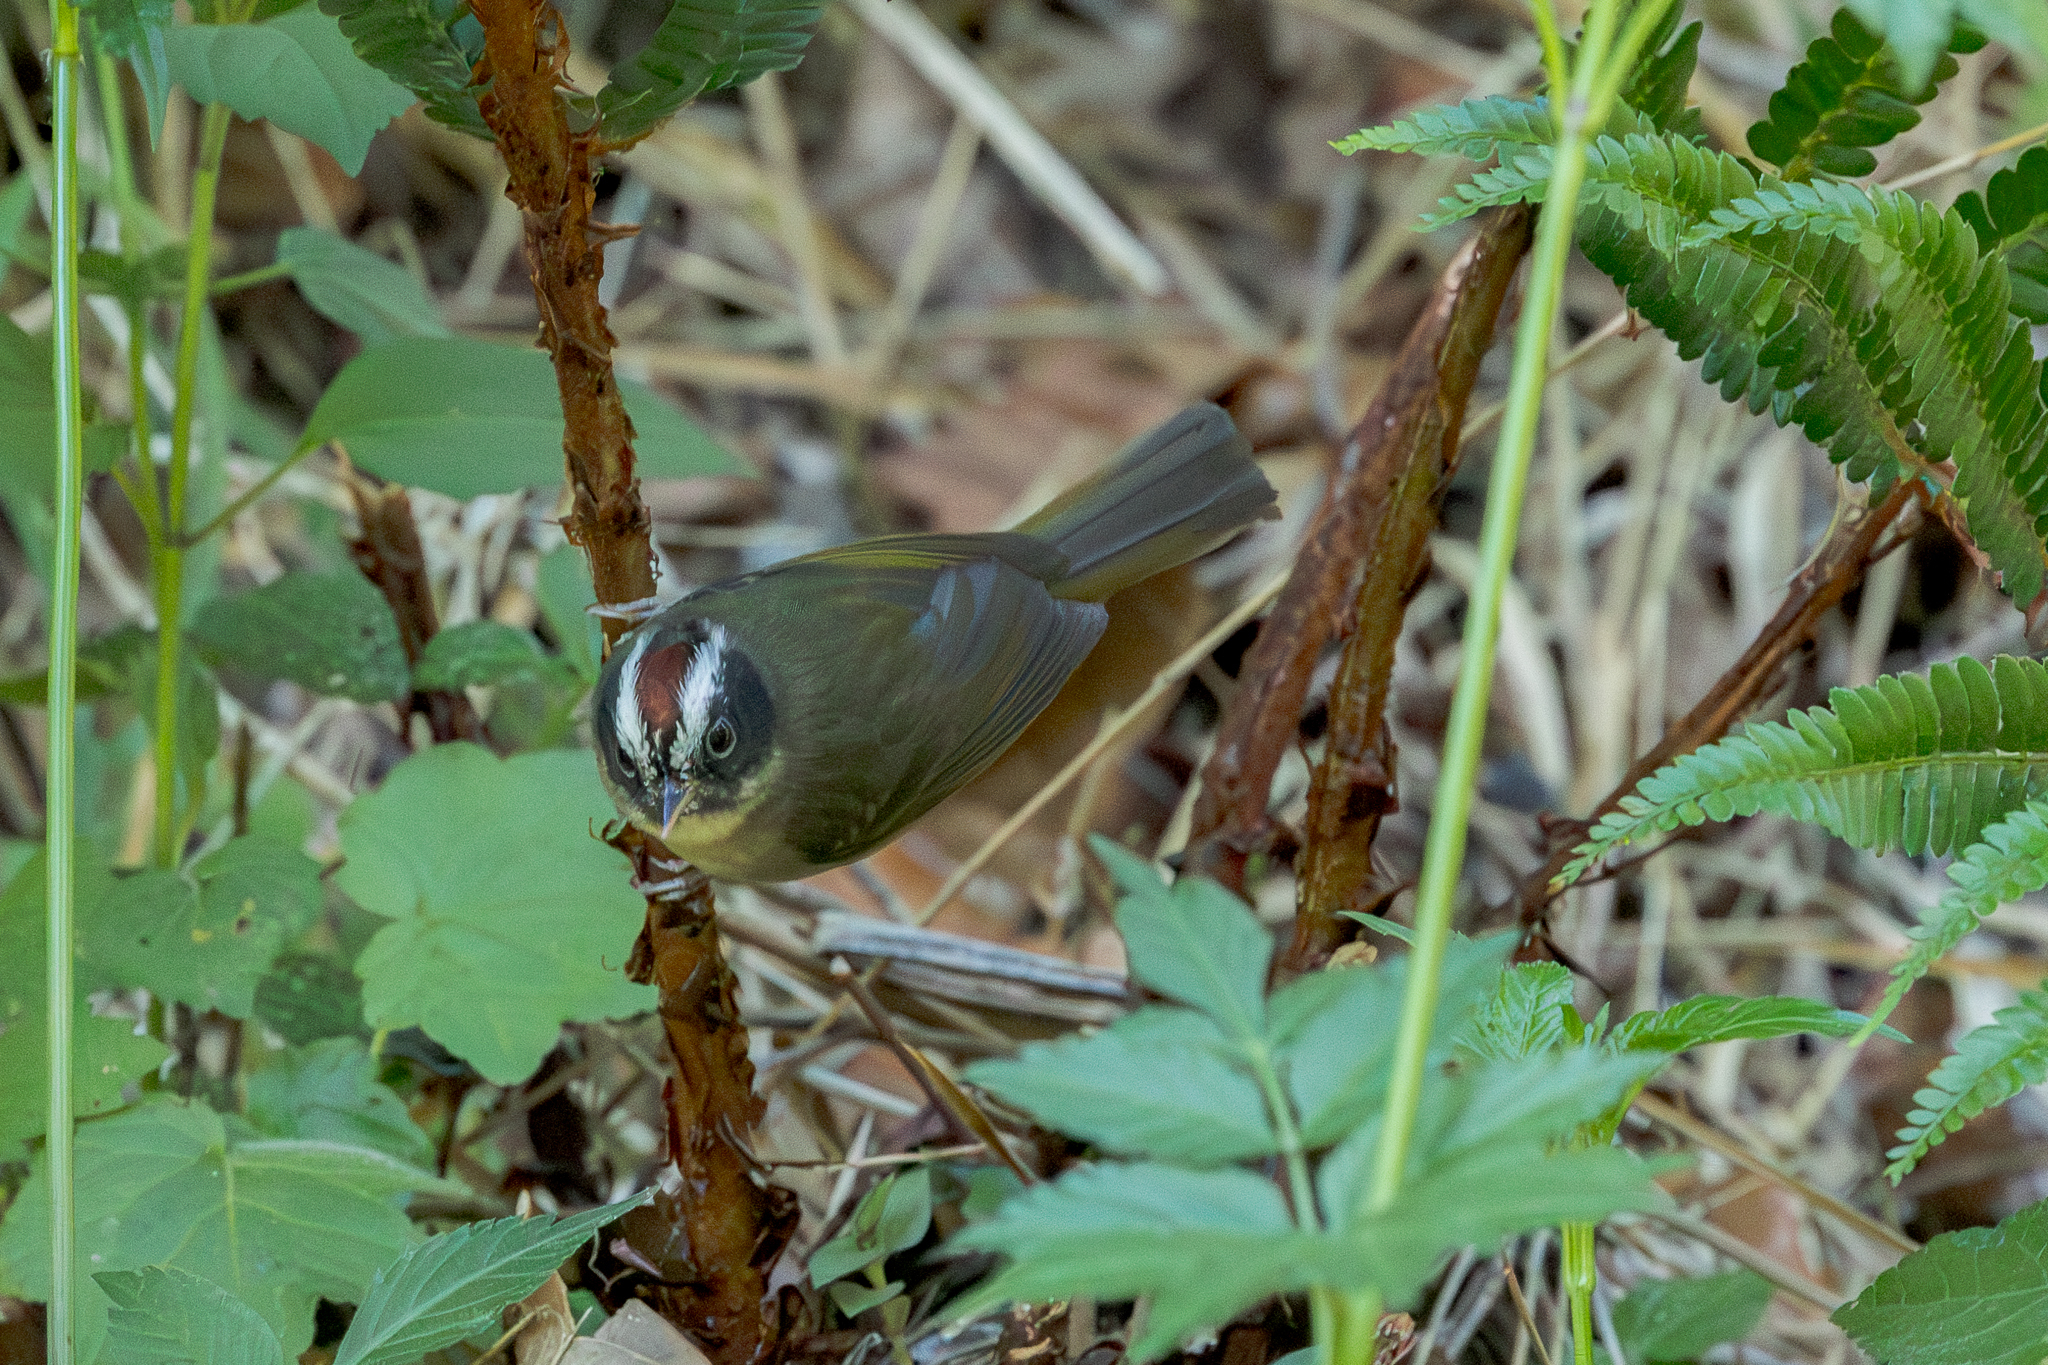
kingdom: Animalia
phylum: Chordata
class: Aves
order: Passeriformes
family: Parulidae
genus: Basileuterus
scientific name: Basileuterus melanogenys
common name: Black-cheeked warbler
